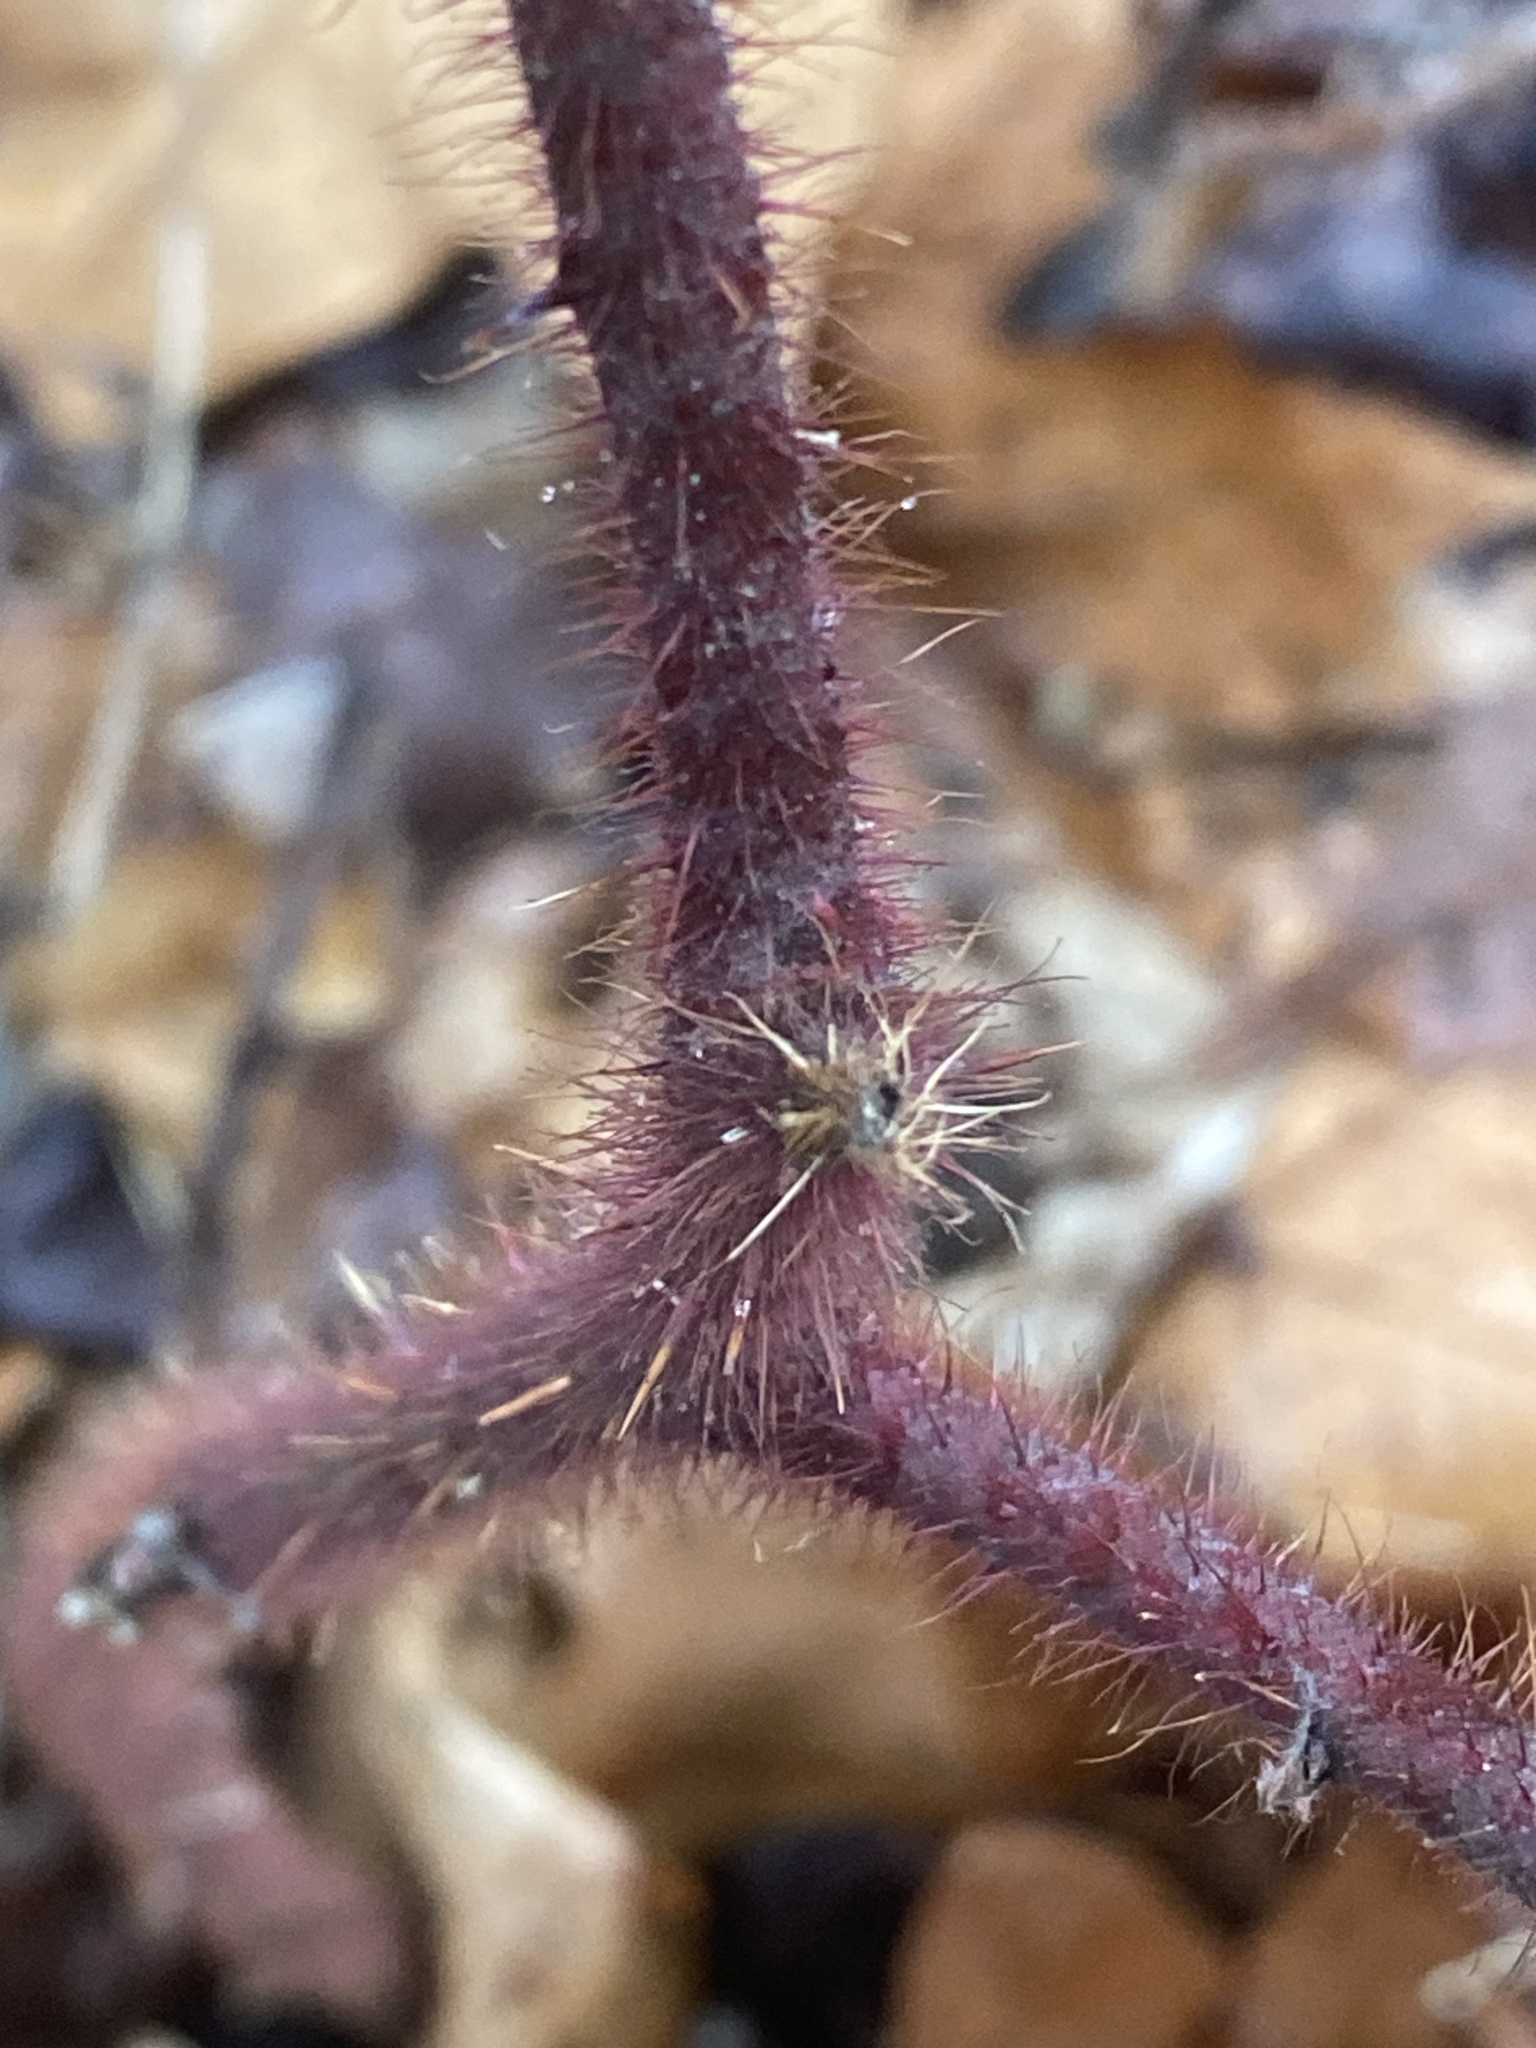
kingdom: Plantae
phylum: Tracheophyta
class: Magnoliopsida
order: Rosales
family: Rosaceae
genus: Rubus
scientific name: Rubus phoenicolasius
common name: Japanese wineberry
